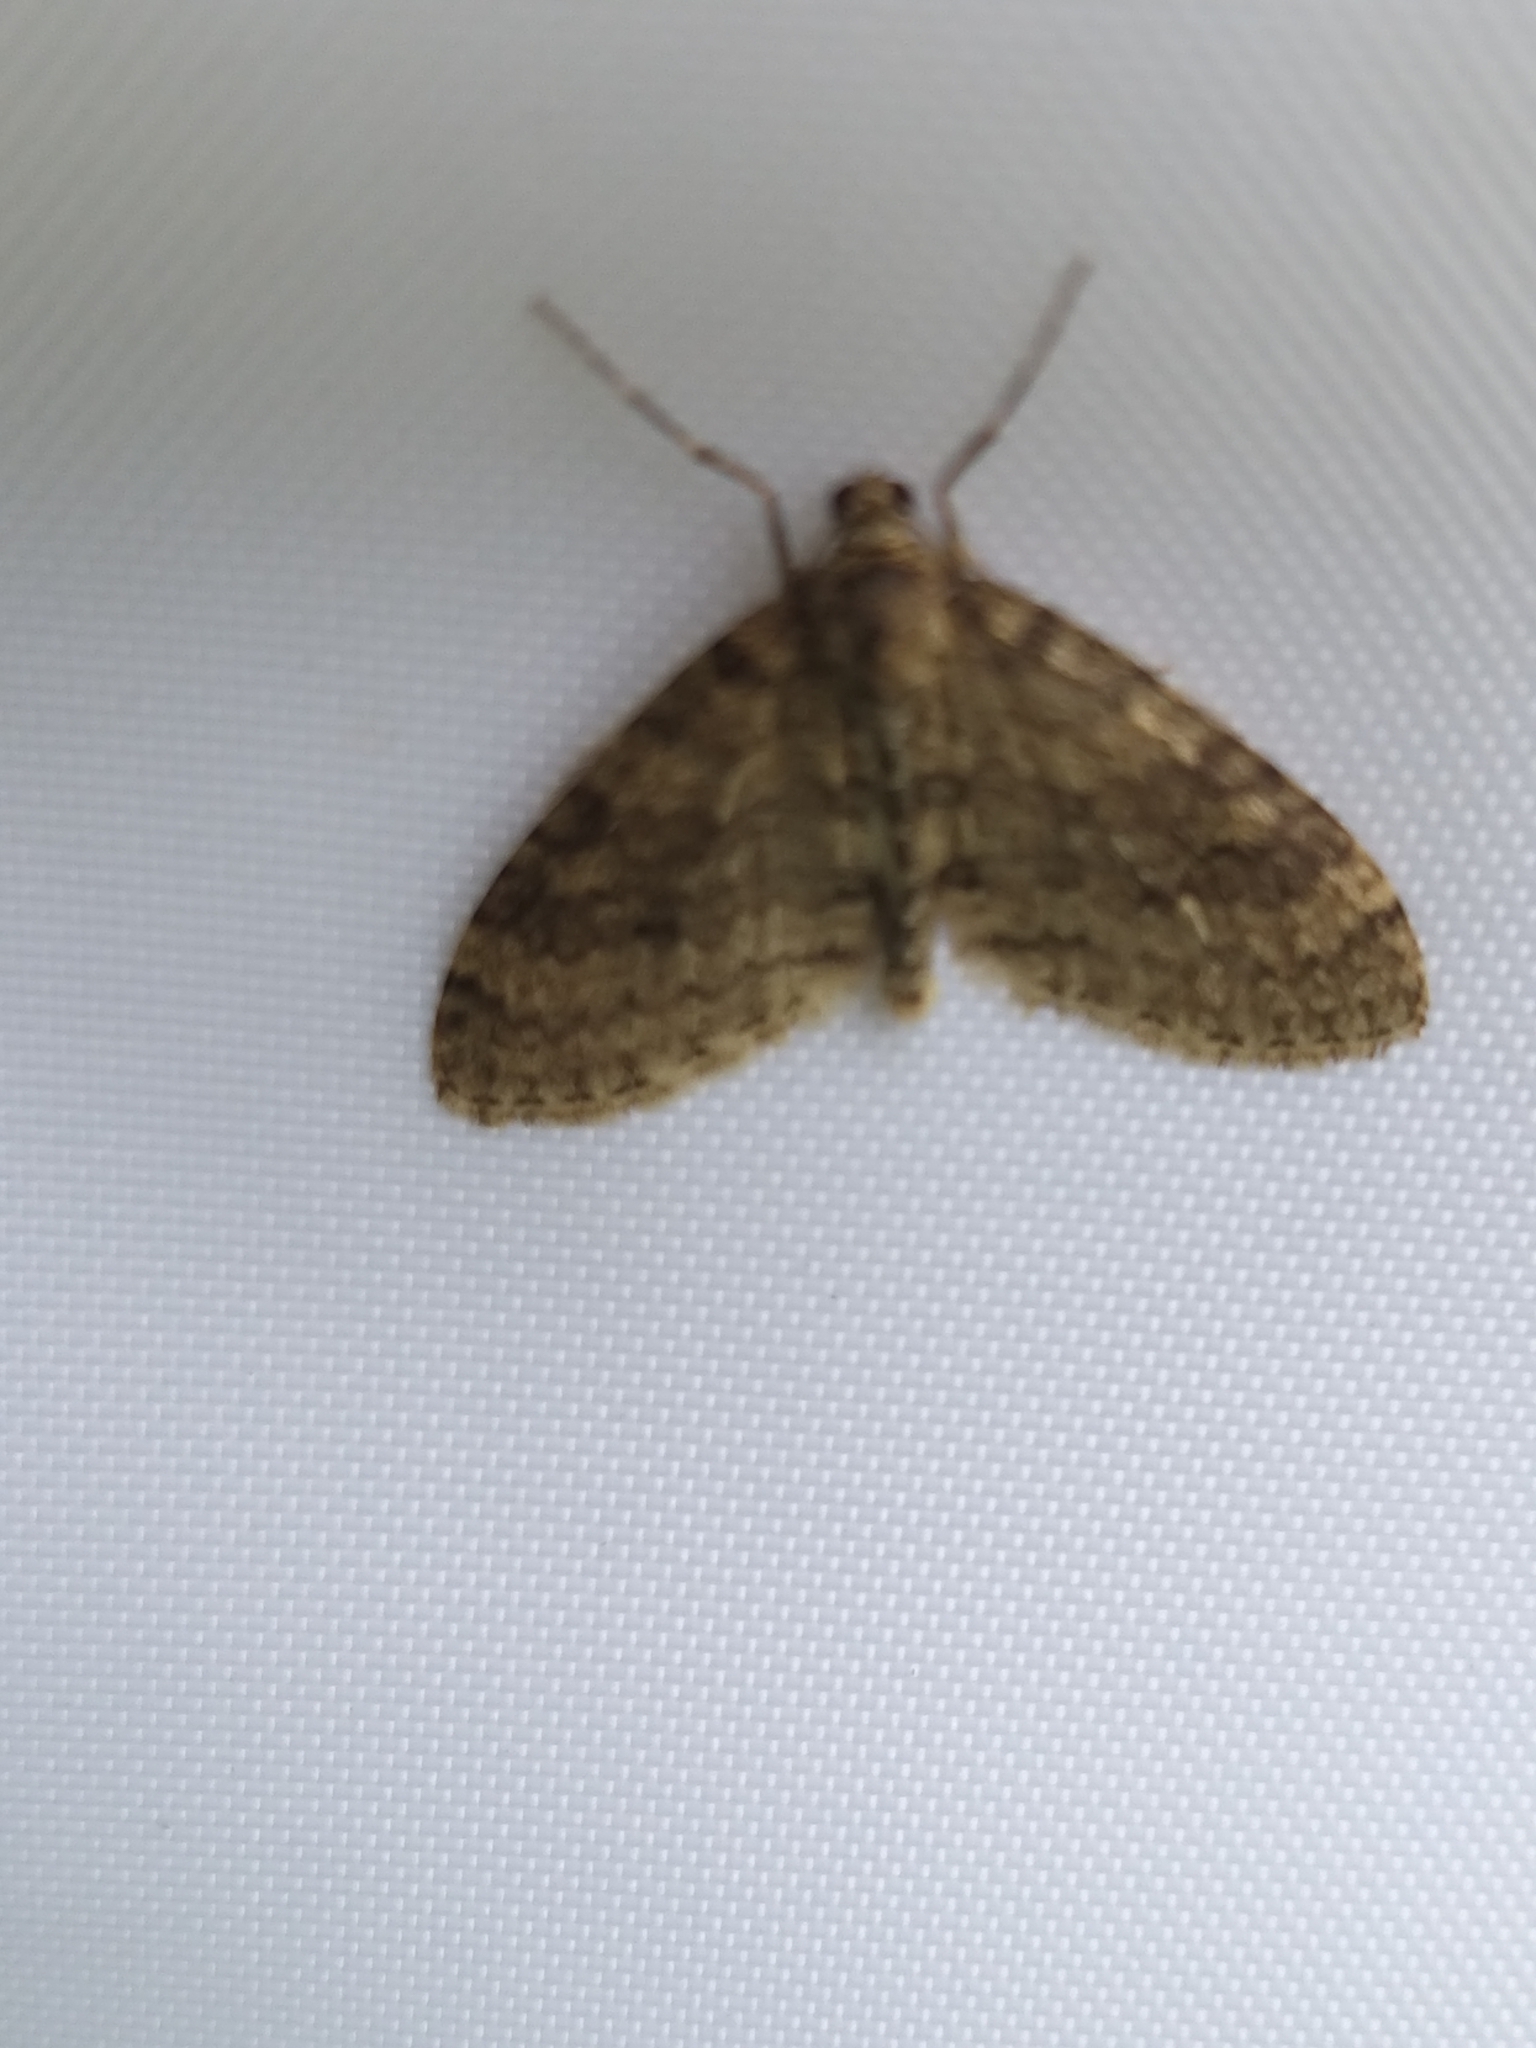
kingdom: Animalia
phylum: Arthropoda
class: Insecta
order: Lepidoptera
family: Geometridae
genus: Trichopteryx
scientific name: Trichopteryx carpinata
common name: Early tooth-striped
